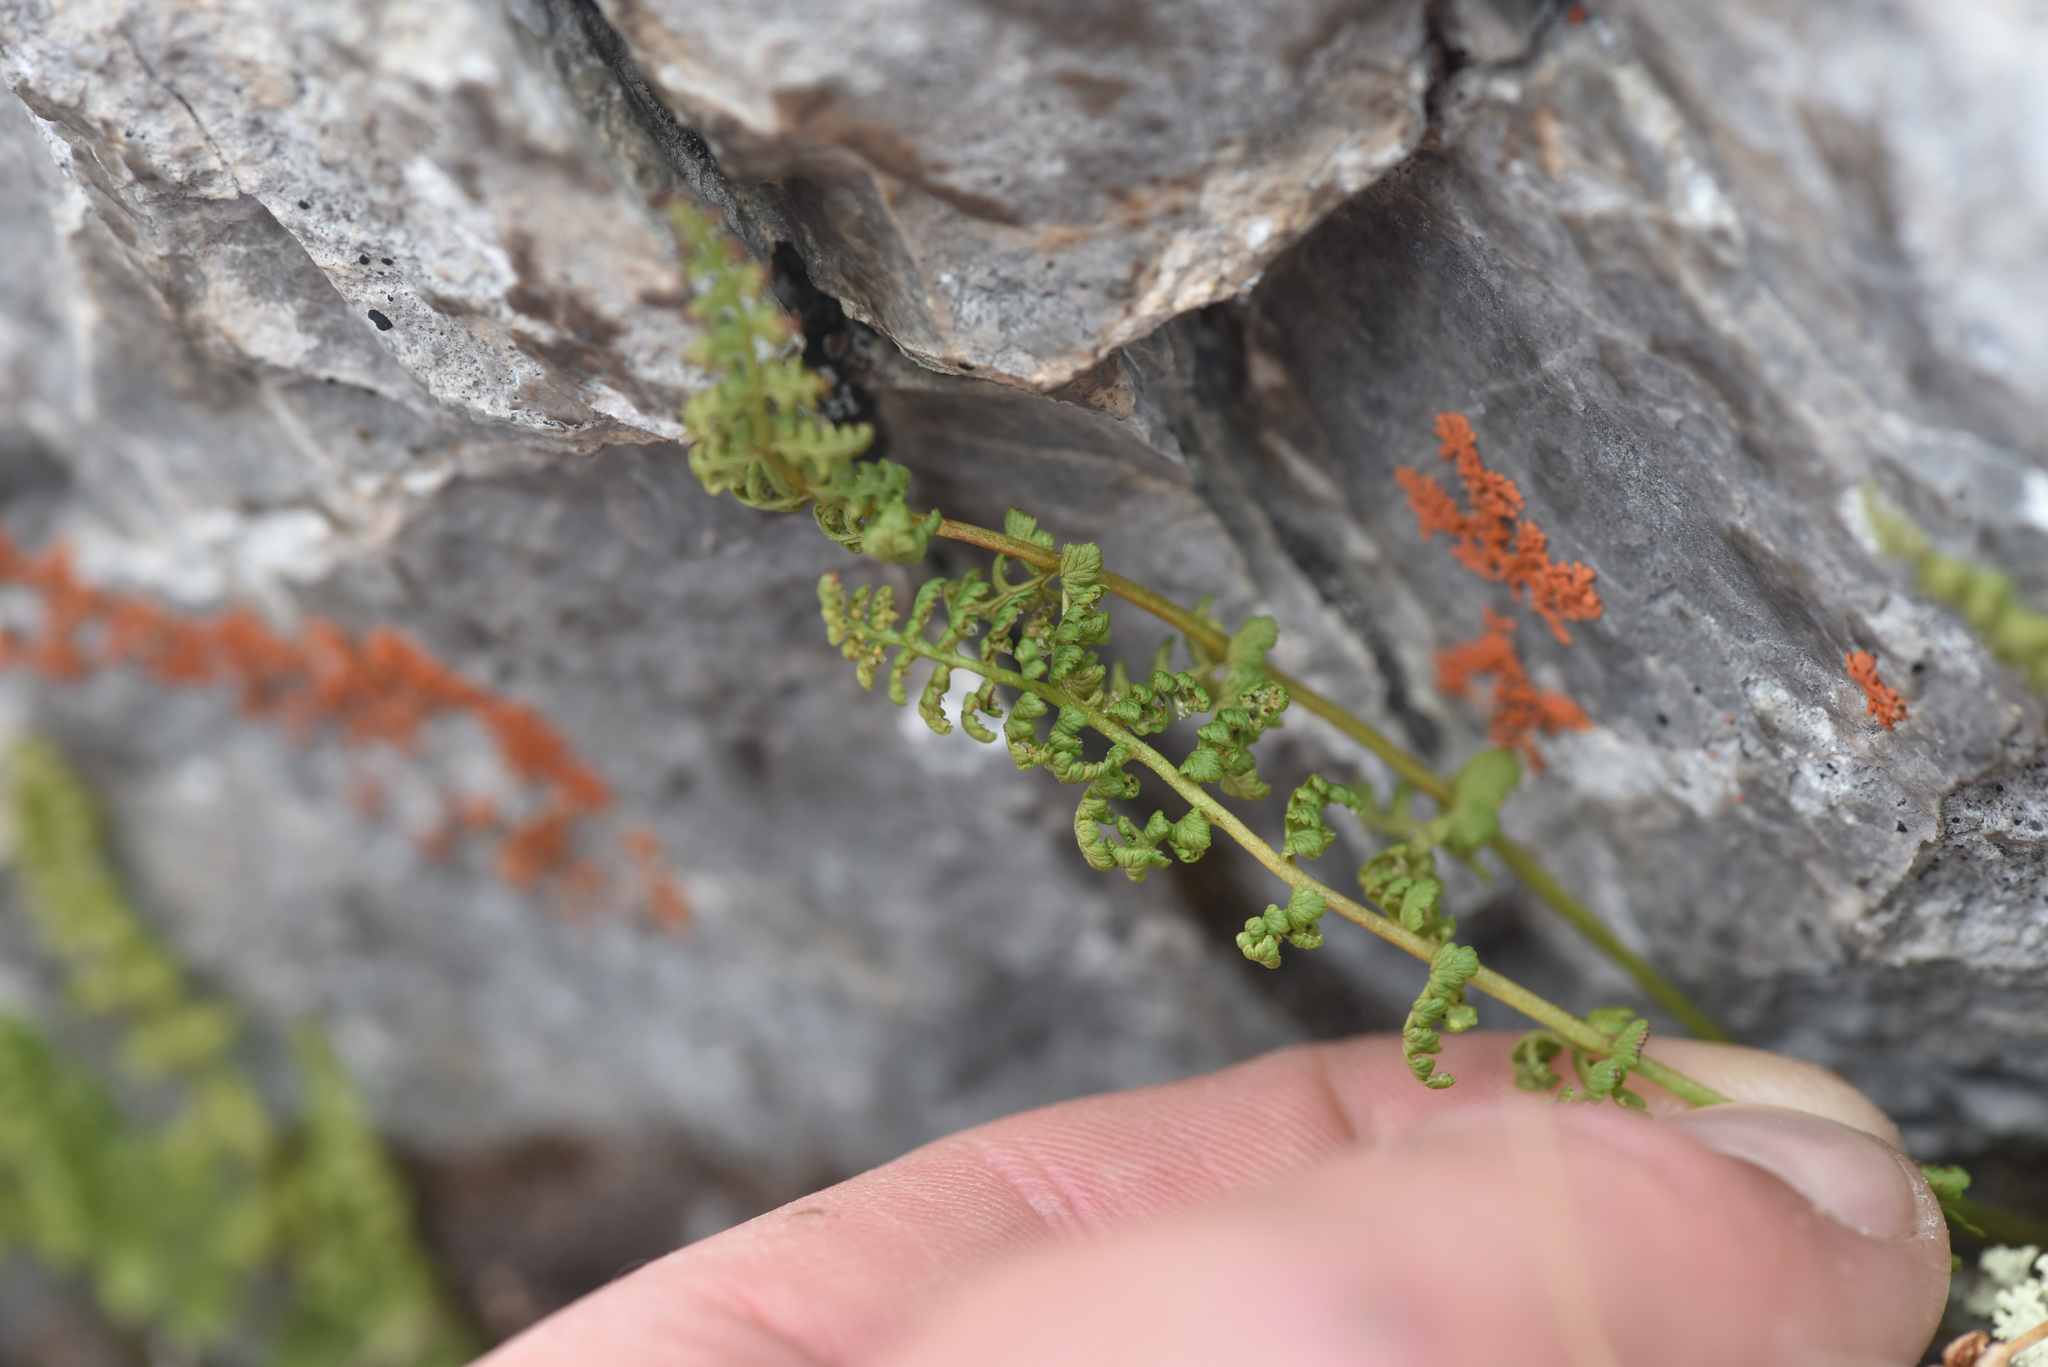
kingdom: Plantae
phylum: Tracheophyta
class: Polypodiopsida
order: Polypodiales
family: Cystopteridaceae
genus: Cystopteris
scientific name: Cystopteris fragilis
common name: Brittle bladder fern
